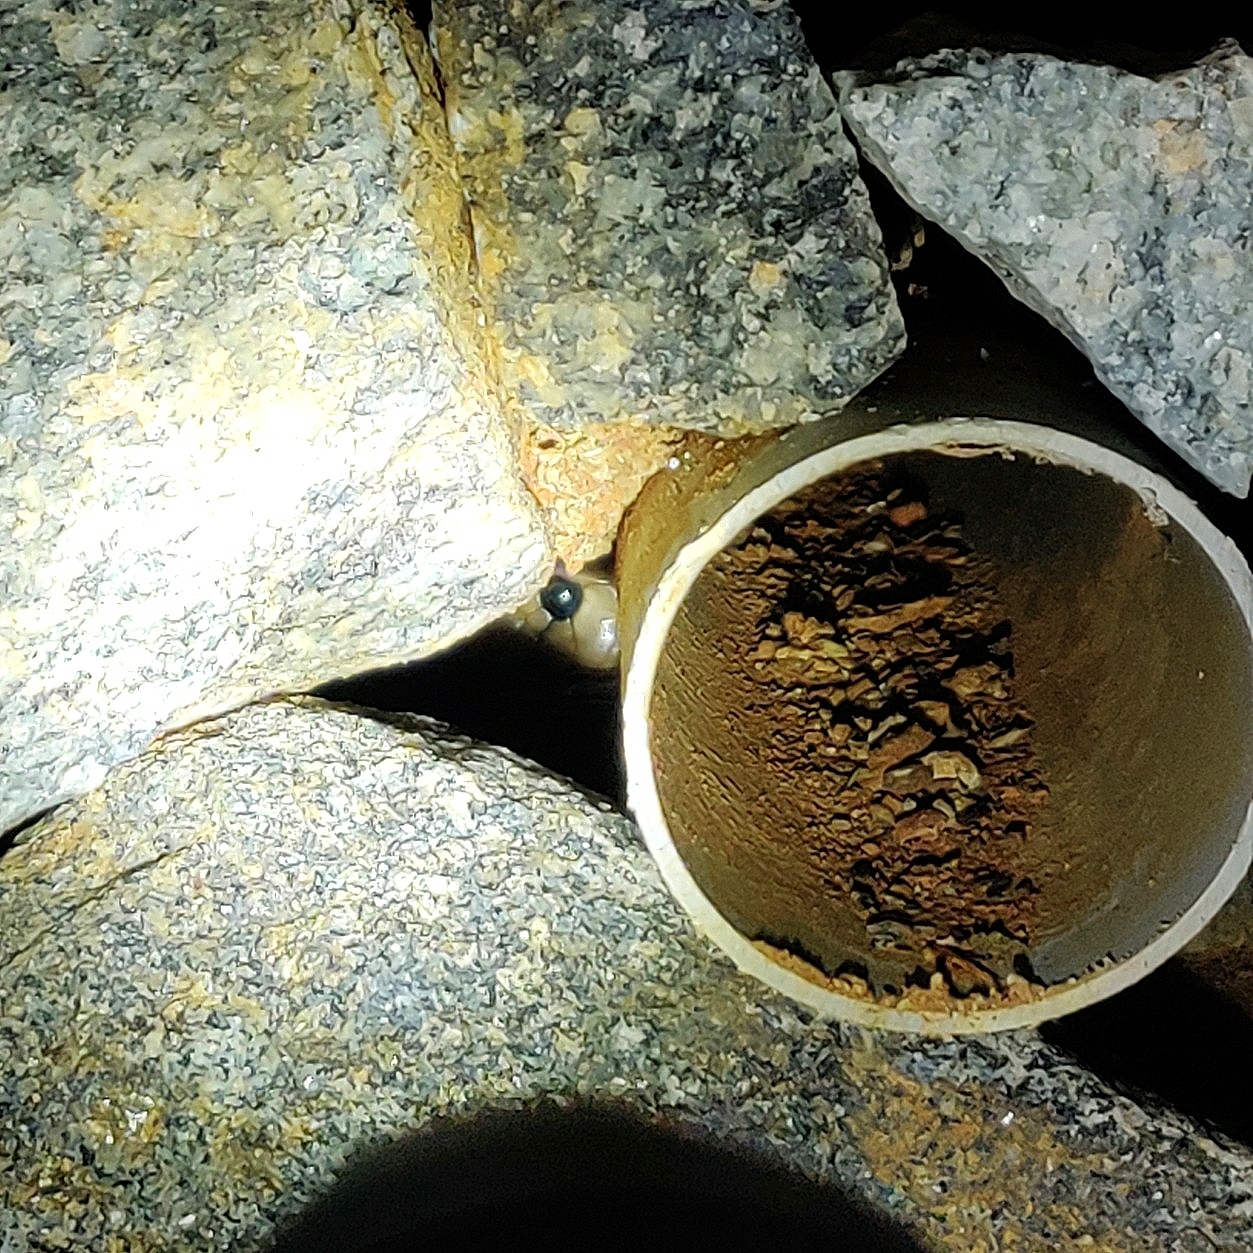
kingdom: Animalia
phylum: Chordata
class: Squamata
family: Elapidae
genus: Naja
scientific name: Naja naja
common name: Indian cobra
